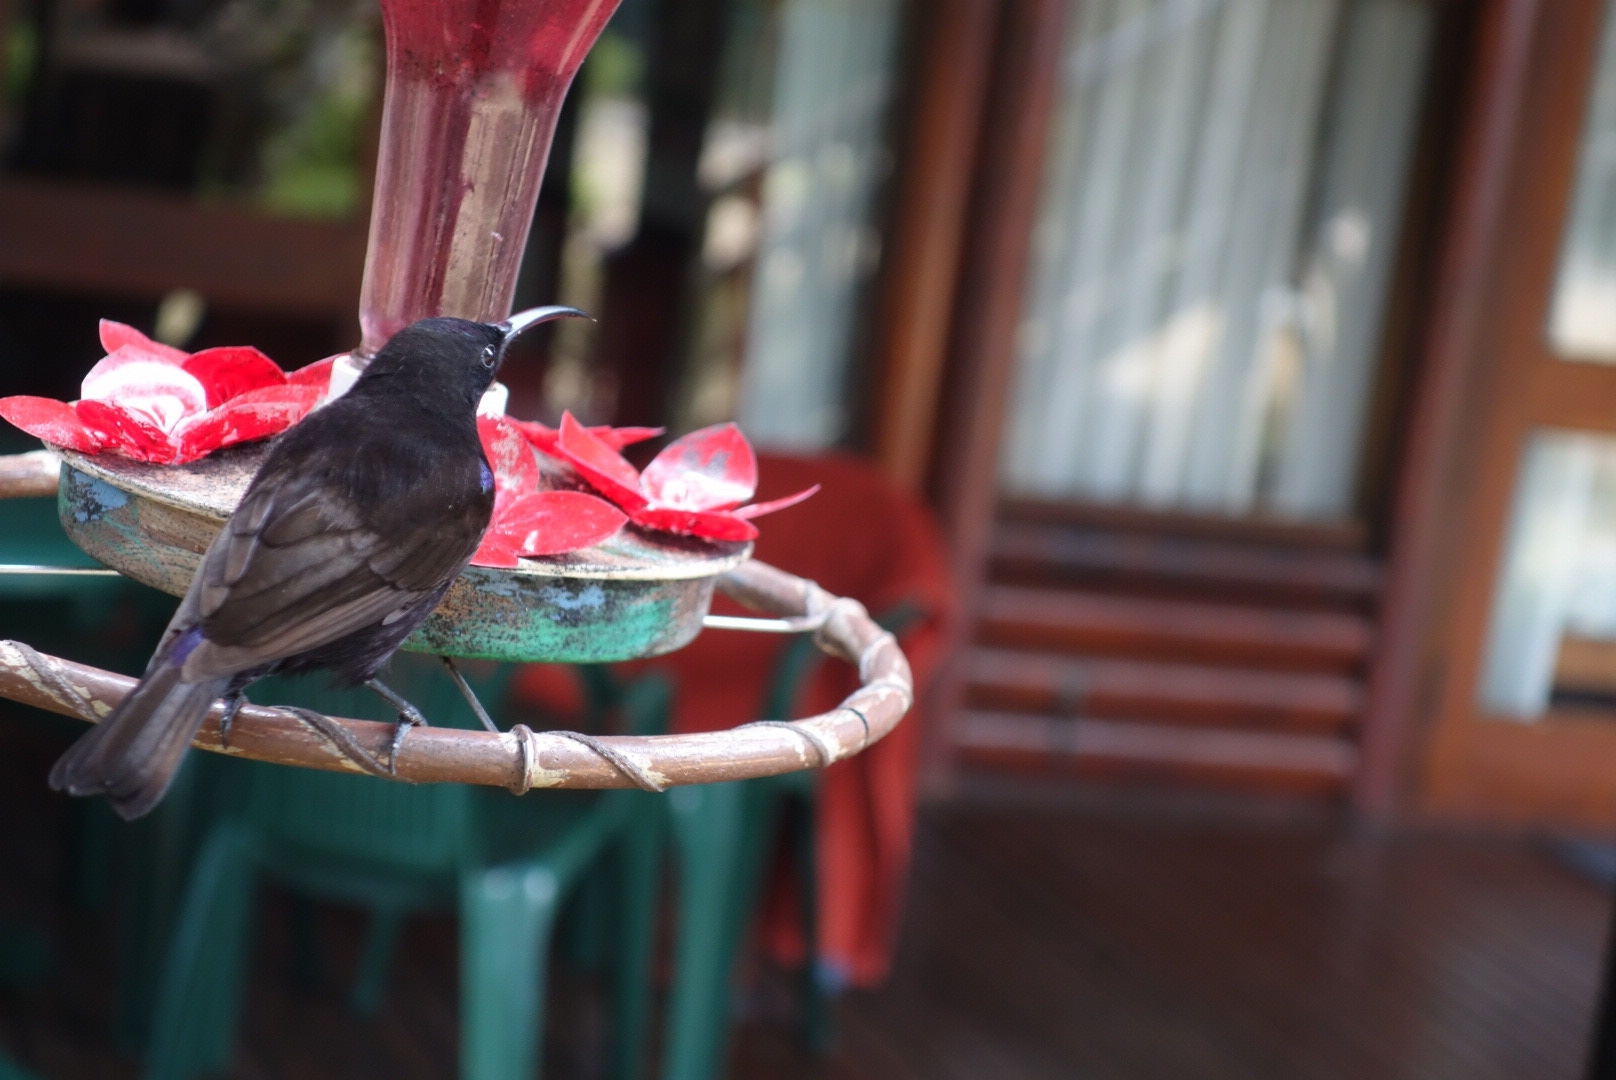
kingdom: Animalia
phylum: Chordata
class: Aves
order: Passeriformes
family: Nectariniidae
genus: Chalcomitra
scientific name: Chalcomitra amethystina
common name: Amethyst sunbird
